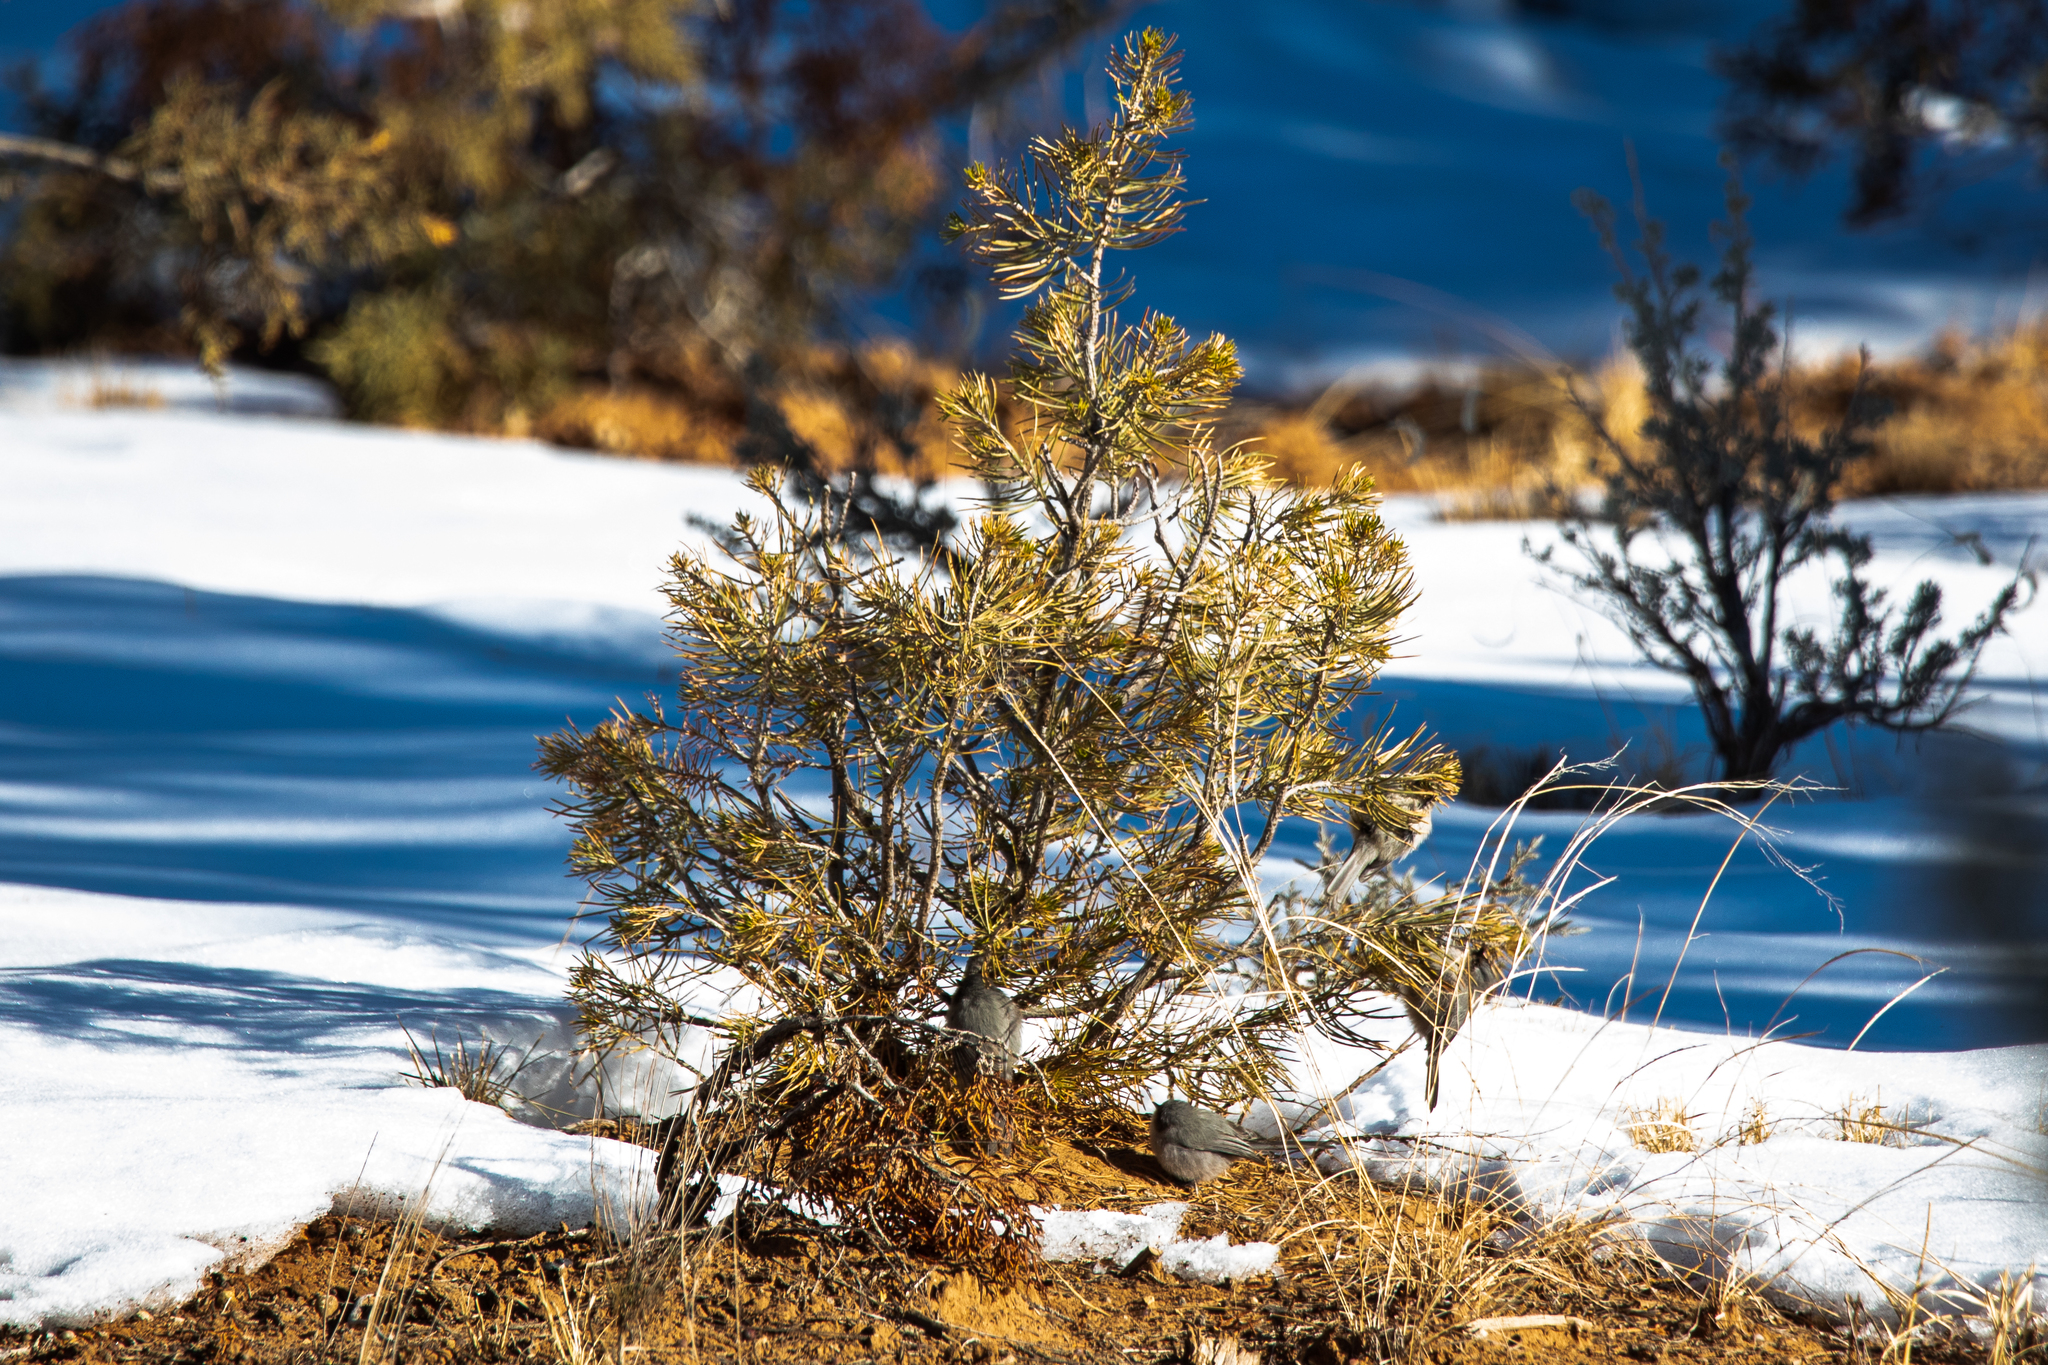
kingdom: Animalia
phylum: Chordata
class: Aves
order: Passeriformes
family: Aegithalidae
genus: Psaltriparus
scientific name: Psaltriparus minimus
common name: American bushtit
